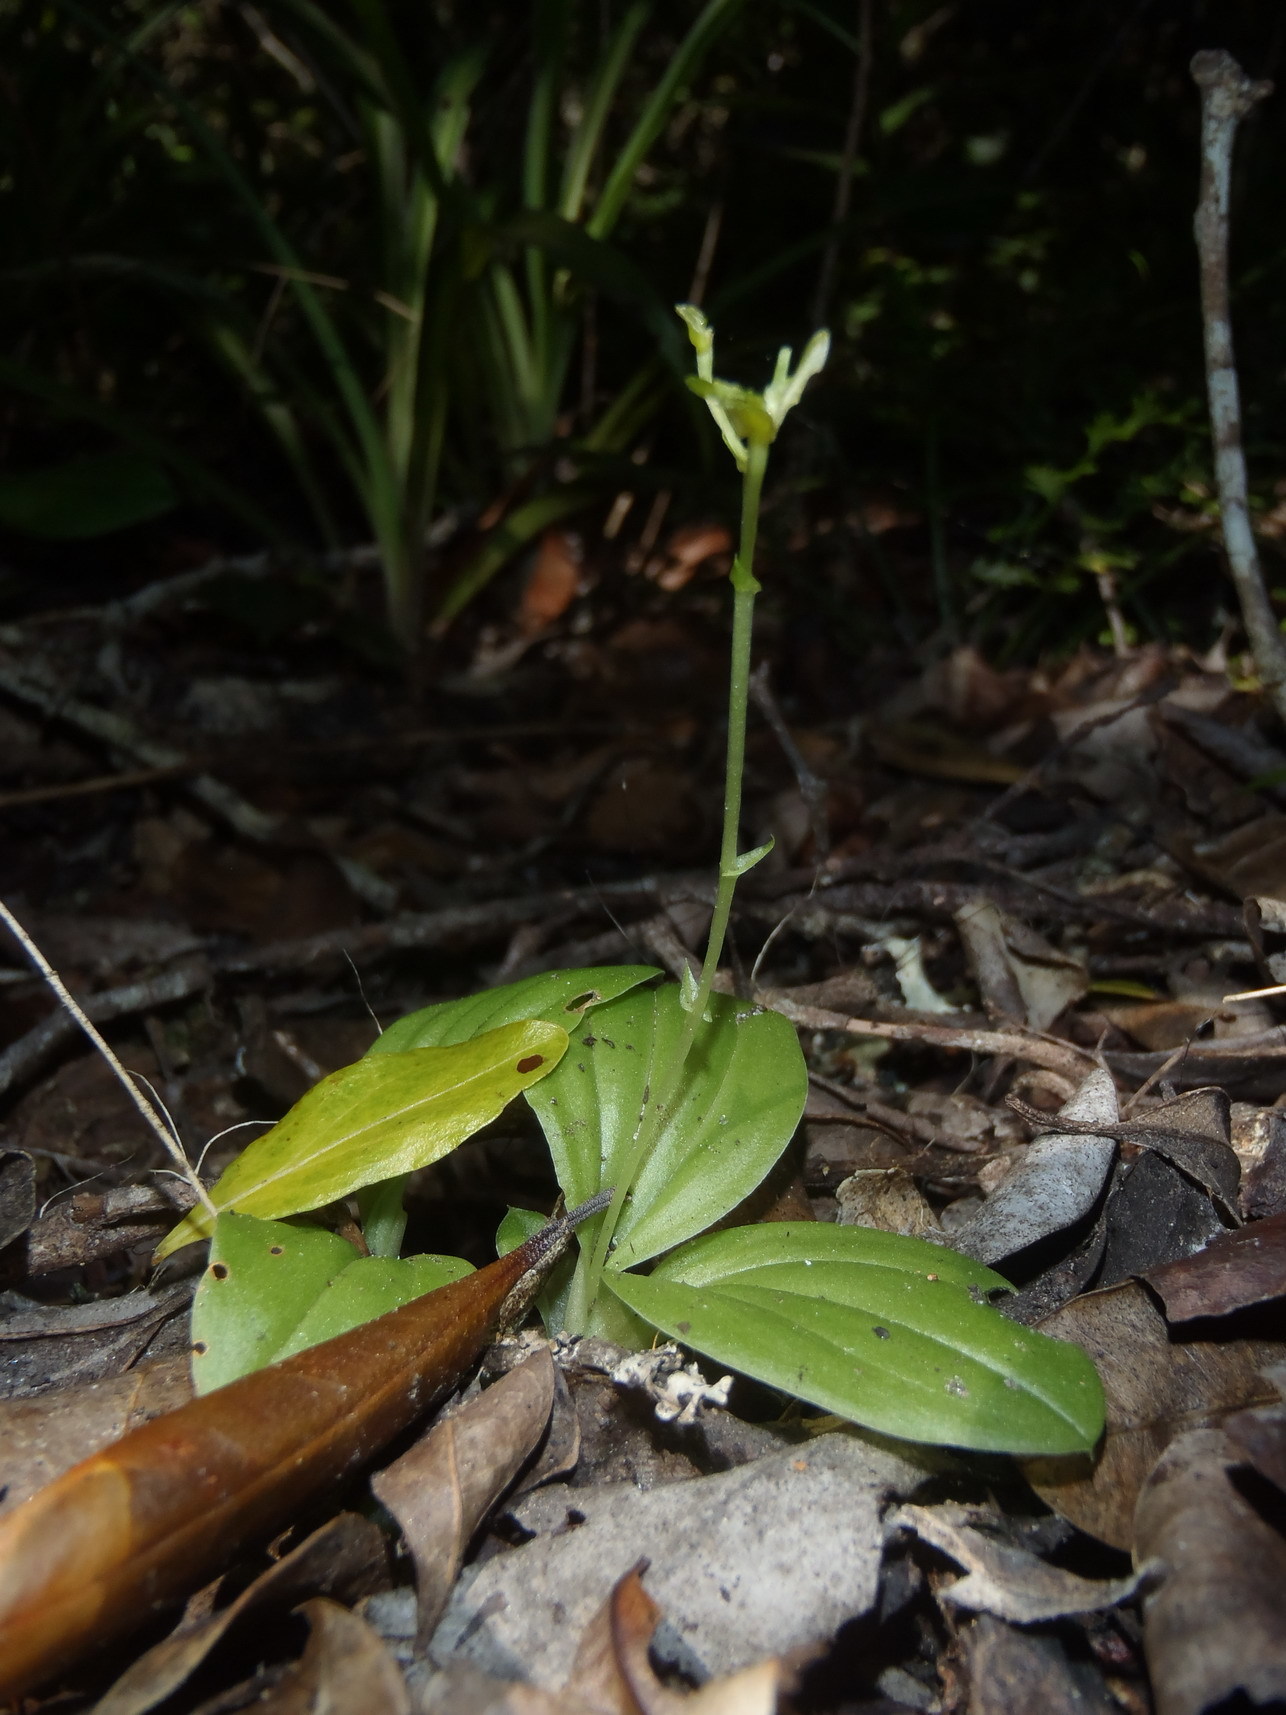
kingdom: Plantae
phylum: Tracheophyta
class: Liliopsida
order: Asparagales
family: Orchidaceae
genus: Liparis
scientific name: Liparis remota
